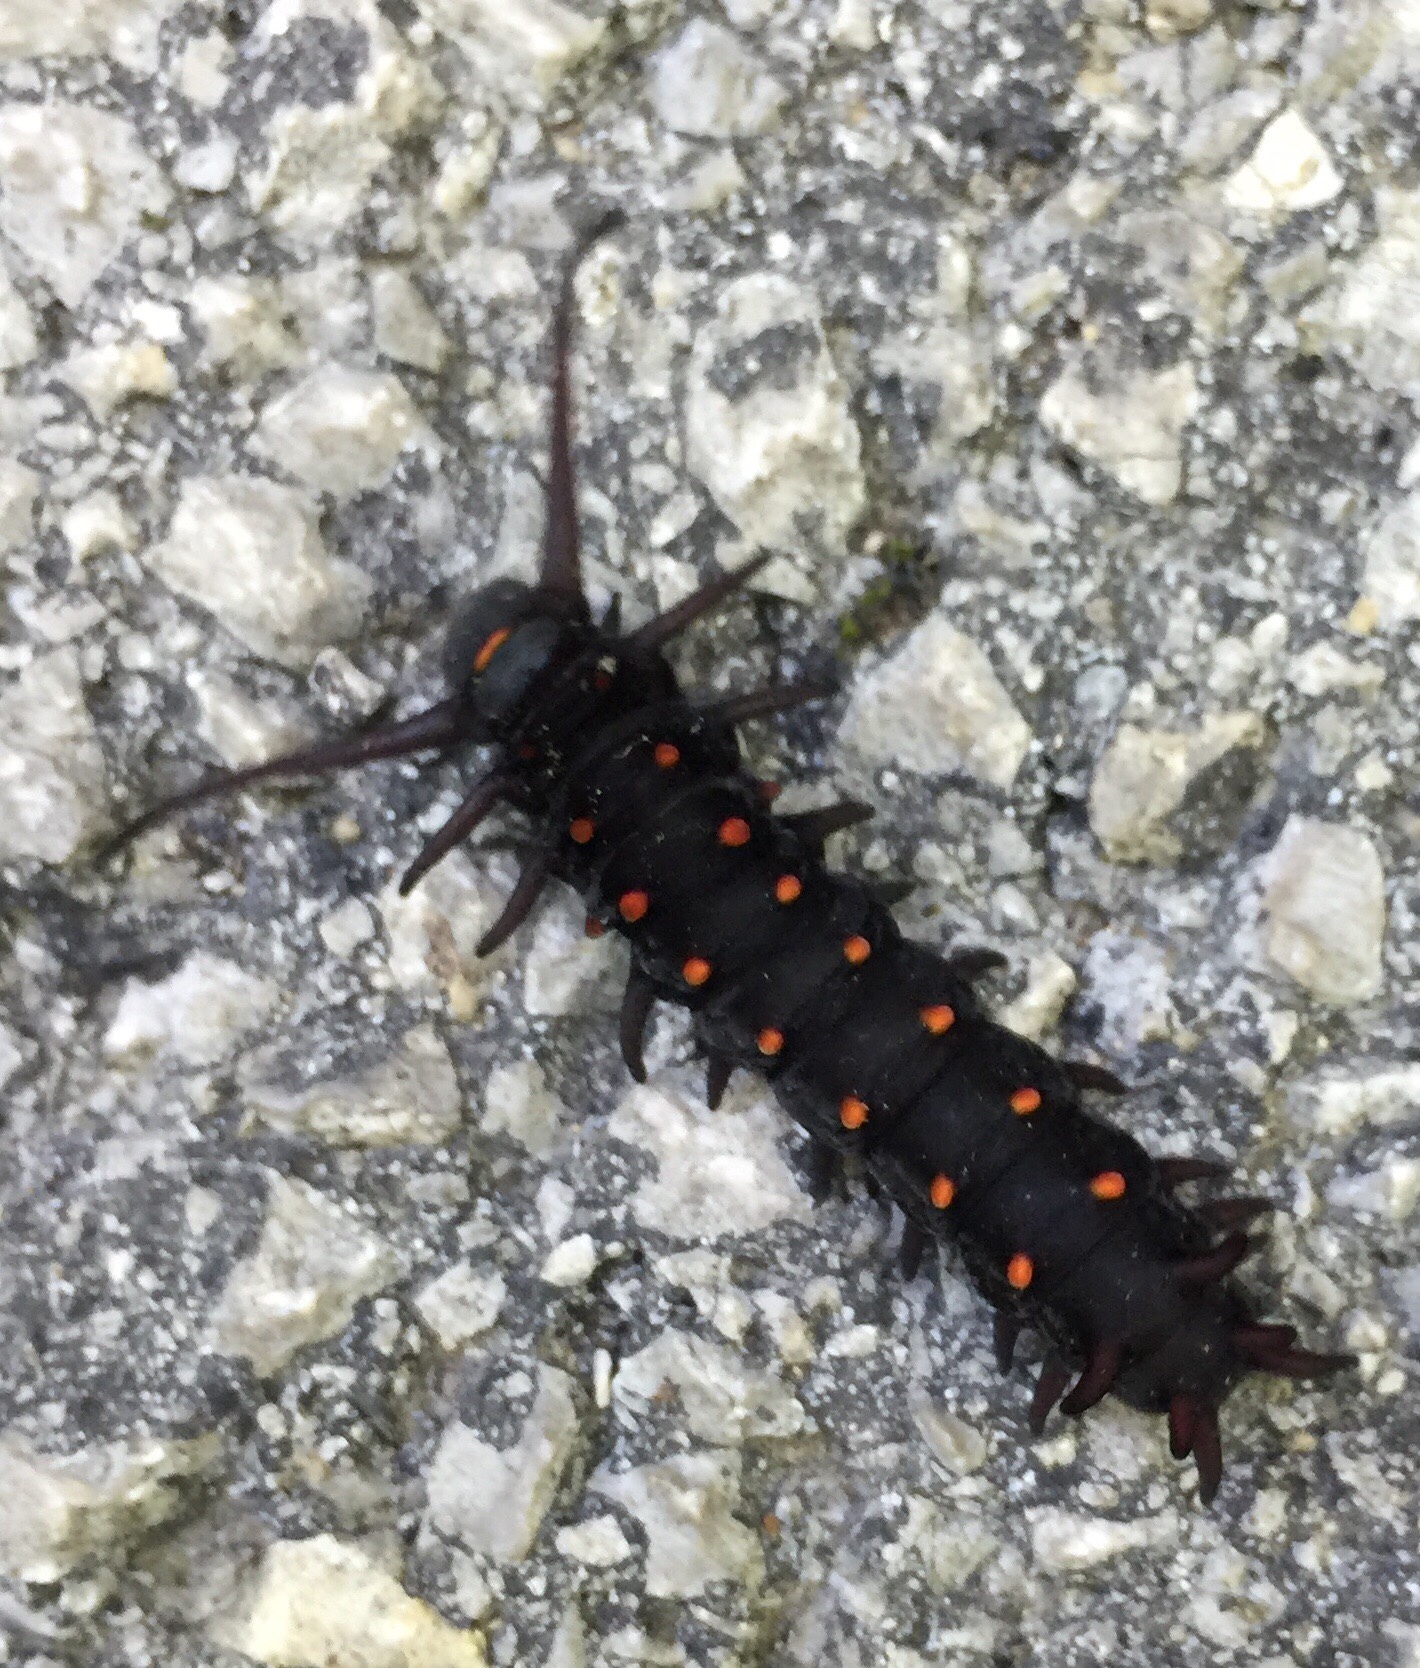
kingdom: Animalia
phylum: Arthropoda
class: Insecta
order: Lepidoptera
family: Papilionidae
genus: Battus
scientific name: Battus philenor
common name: Pipevine swallowtail
